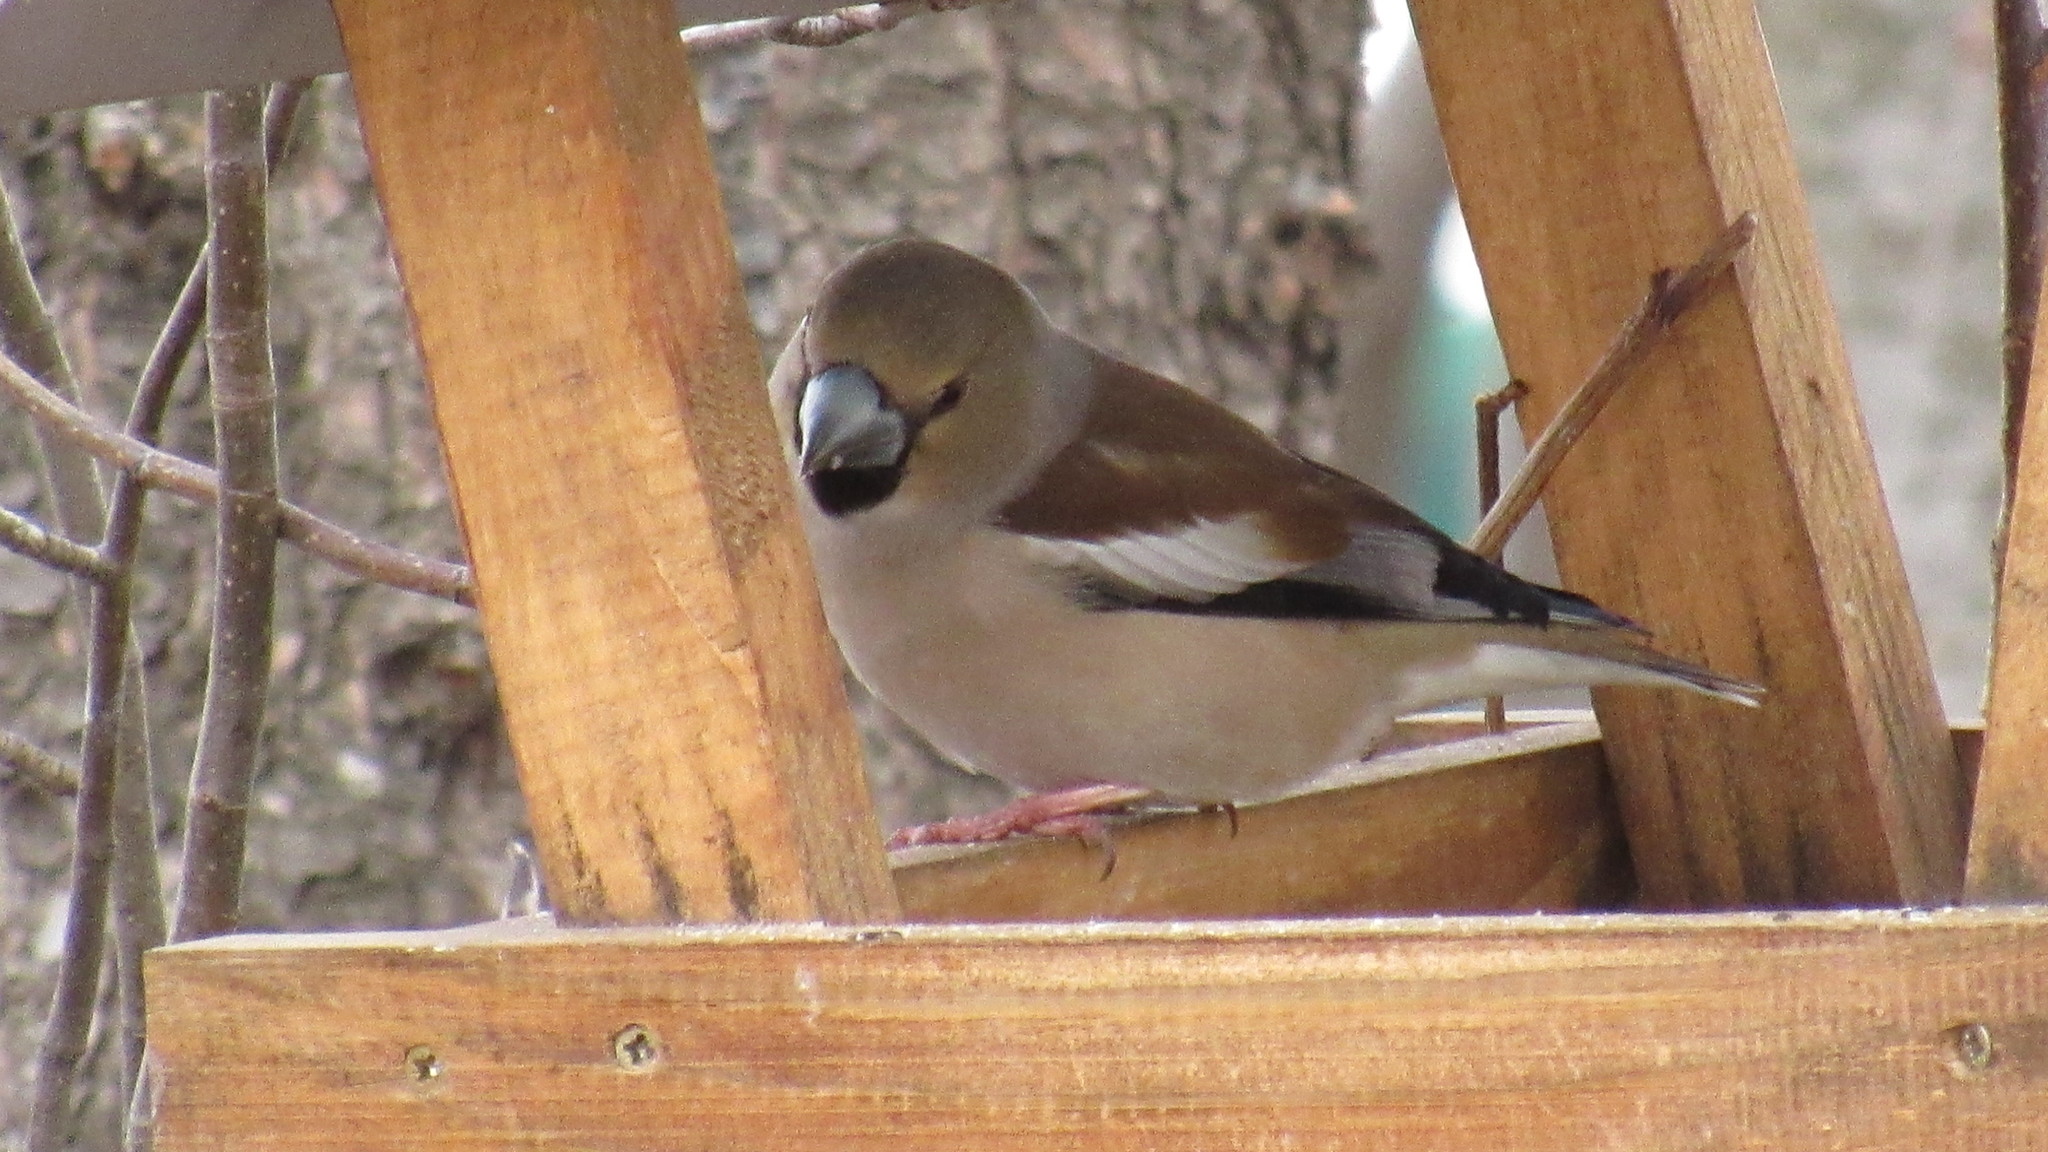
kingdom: Animalia
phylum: Chordata
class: Aves
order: Passeriformes
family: Fringillidae
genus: Coccothraustes
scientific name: Coccothraustes coccothraustes
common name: Hawfinch
